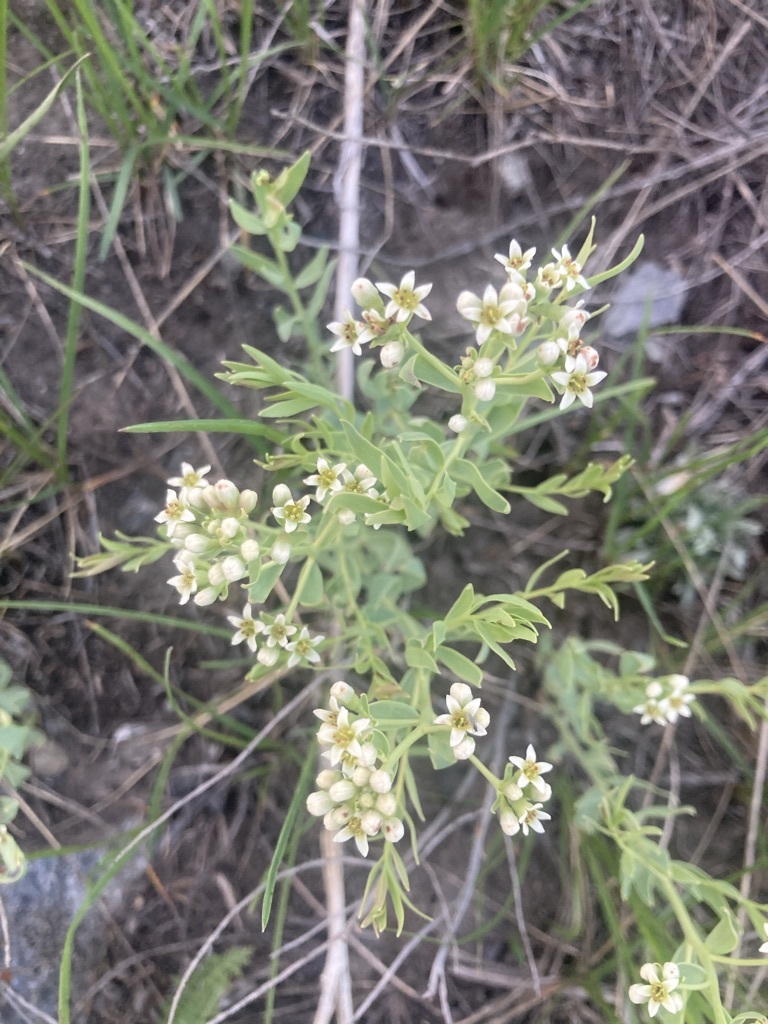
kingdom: Plantae
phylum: Tracheophyta
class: Magnoliopsida
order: Santalales
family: Comandraceae
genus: Comandra
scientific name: Comandra umbellata
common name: Bastard toadflax
